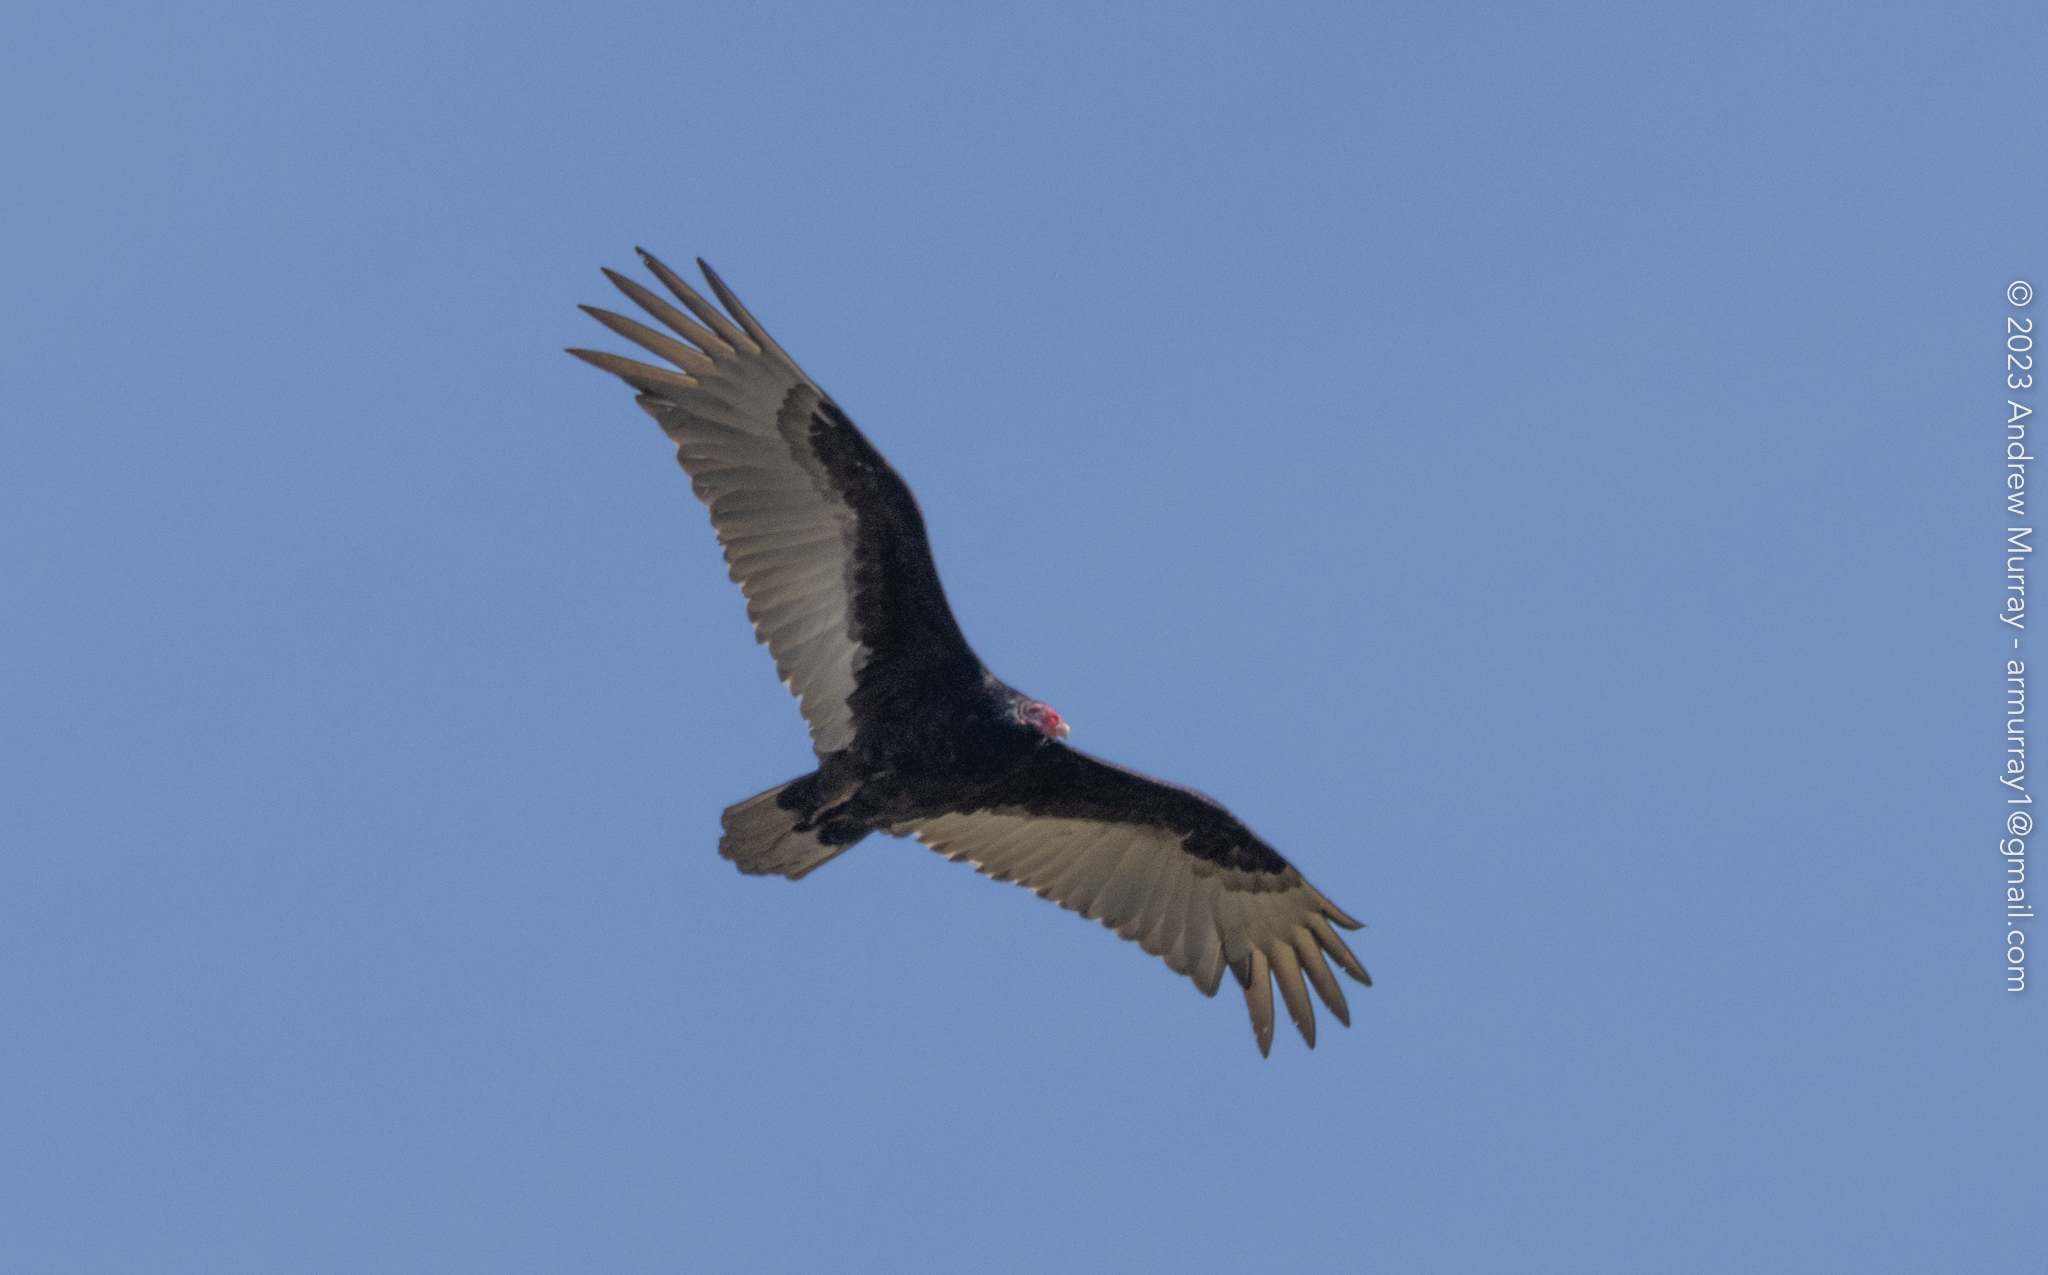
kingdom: Animalia
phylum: Chordata
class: Aves
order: Accipitriformes
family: Cathartidae
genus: Cathartes
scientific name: Cathartes aura
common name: Turkey vulture
